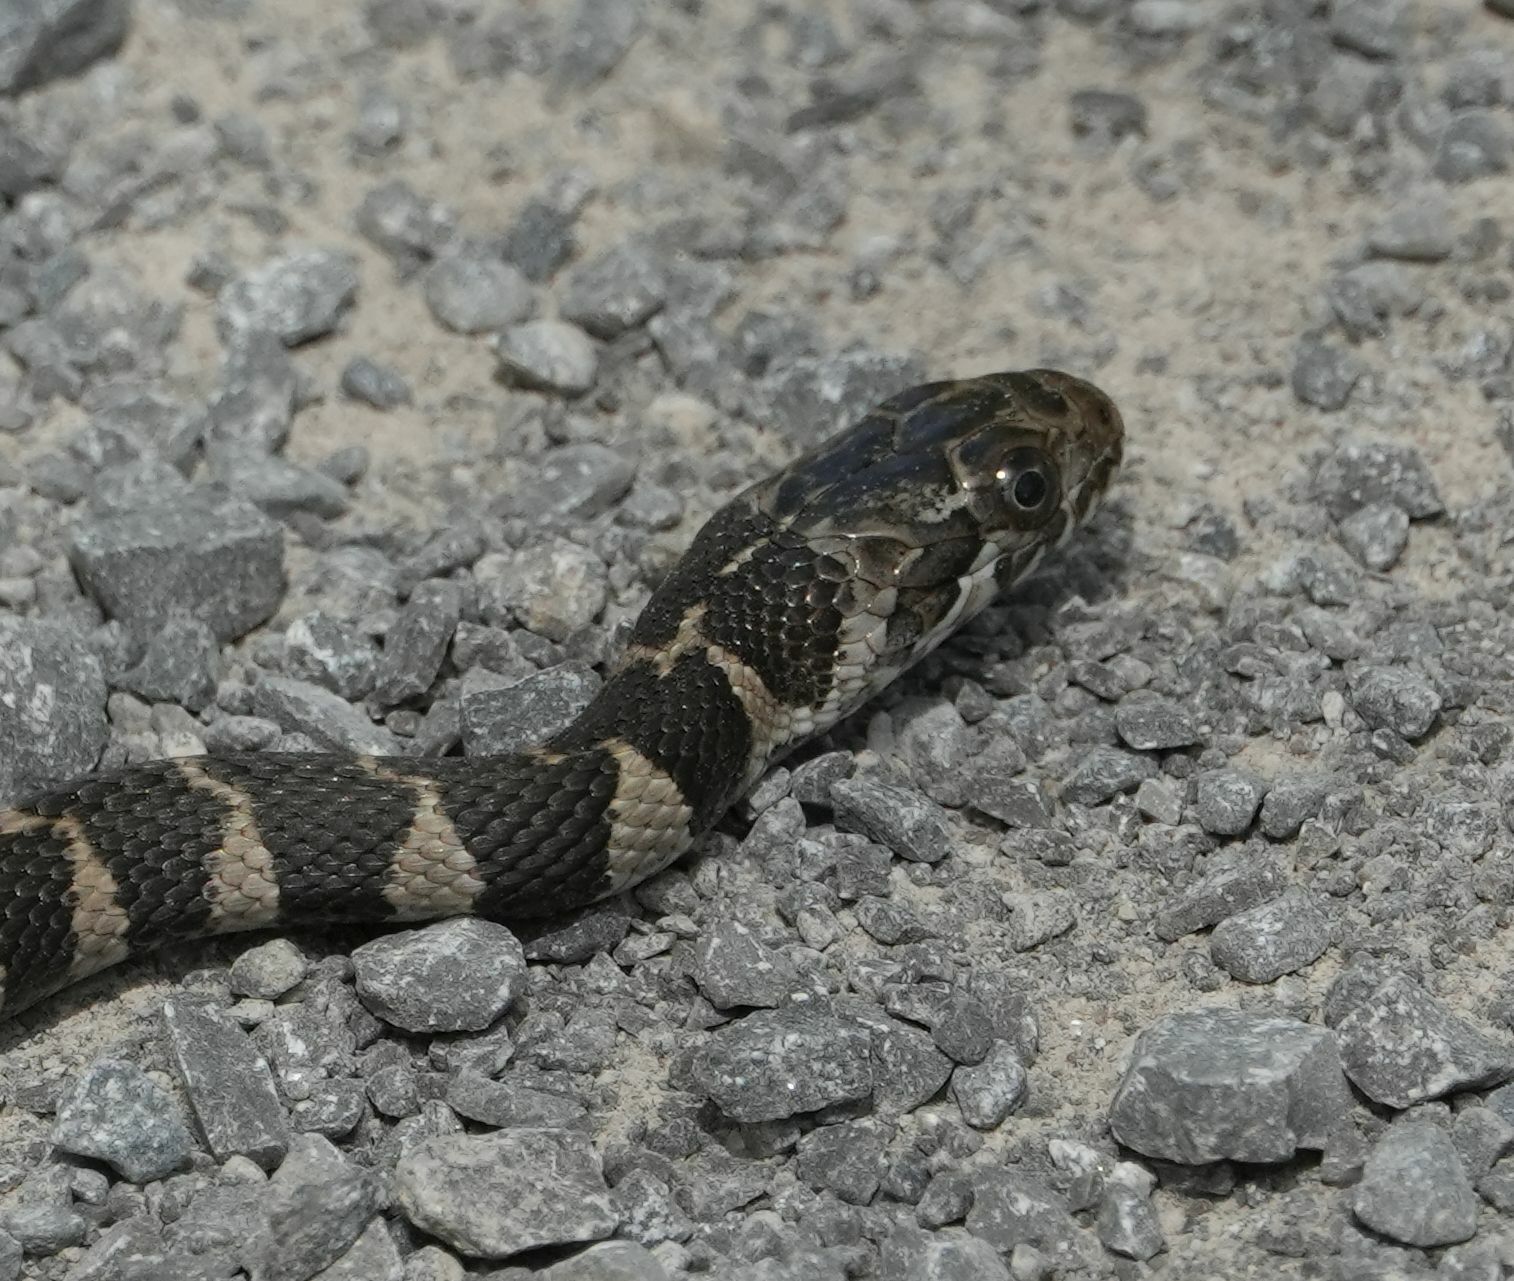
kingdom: Animalia
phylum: Chordata
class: Squamata
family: Colubridae
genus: Nerodia
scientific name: Nerodia sipedon
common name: Northern water snake
